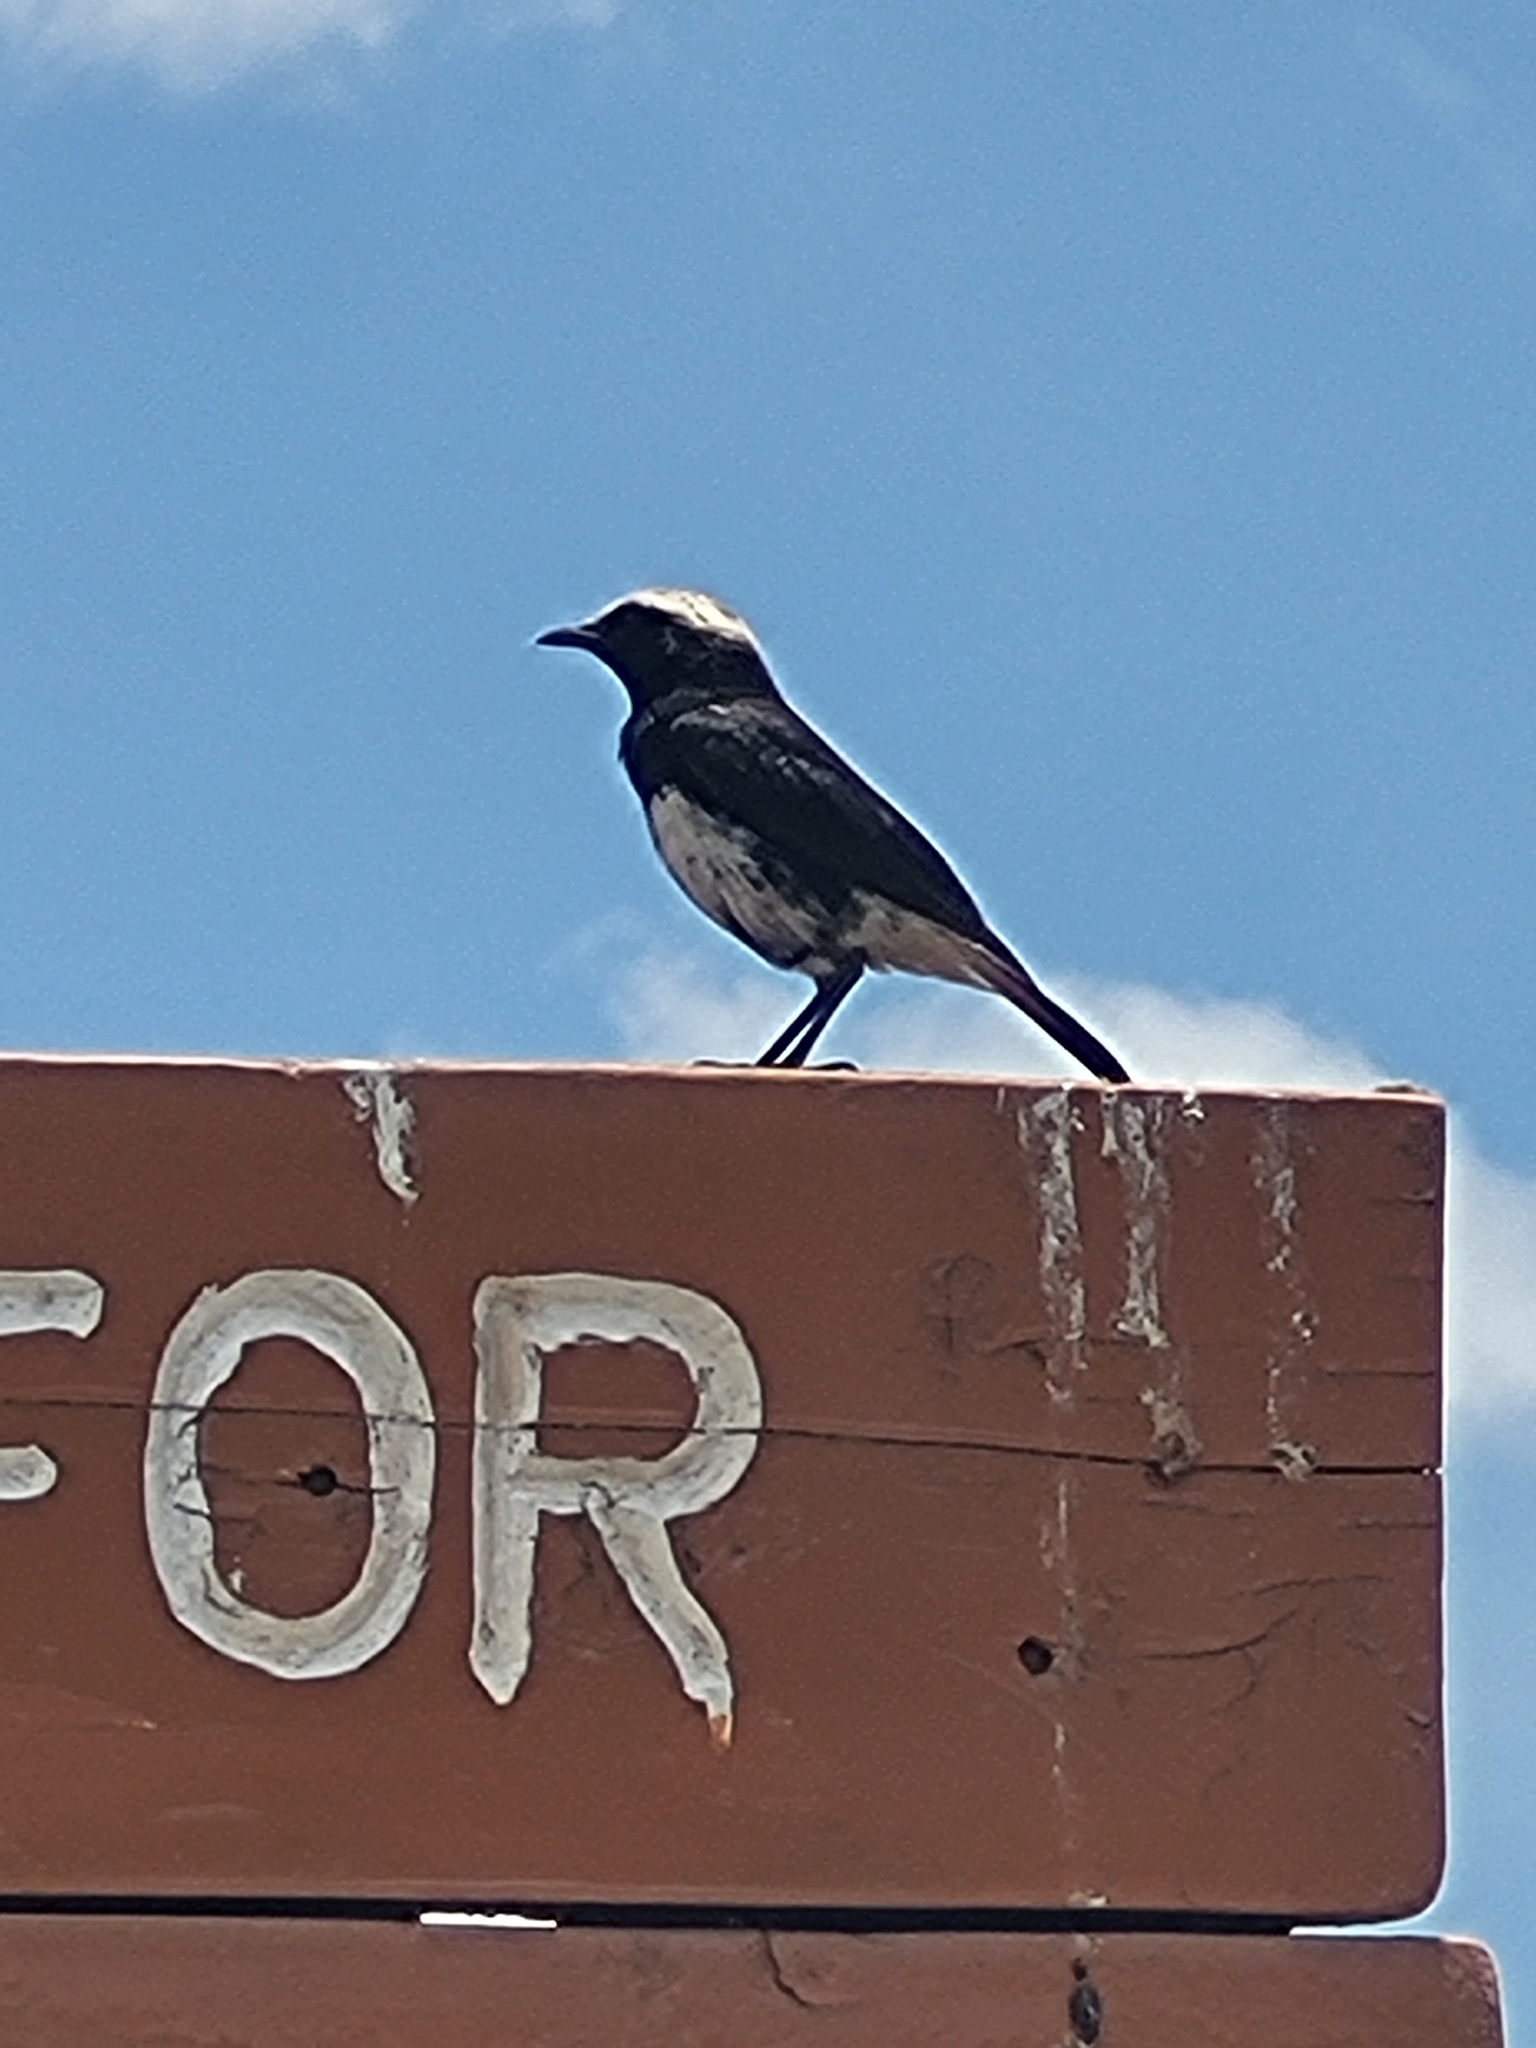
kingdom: Animalia
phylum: Chordata
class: Aves
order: Passeriformes
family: Muscicapidae
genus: Oenanthe
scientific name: Oenanthe lugubris
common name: Abyssinian wheatear
